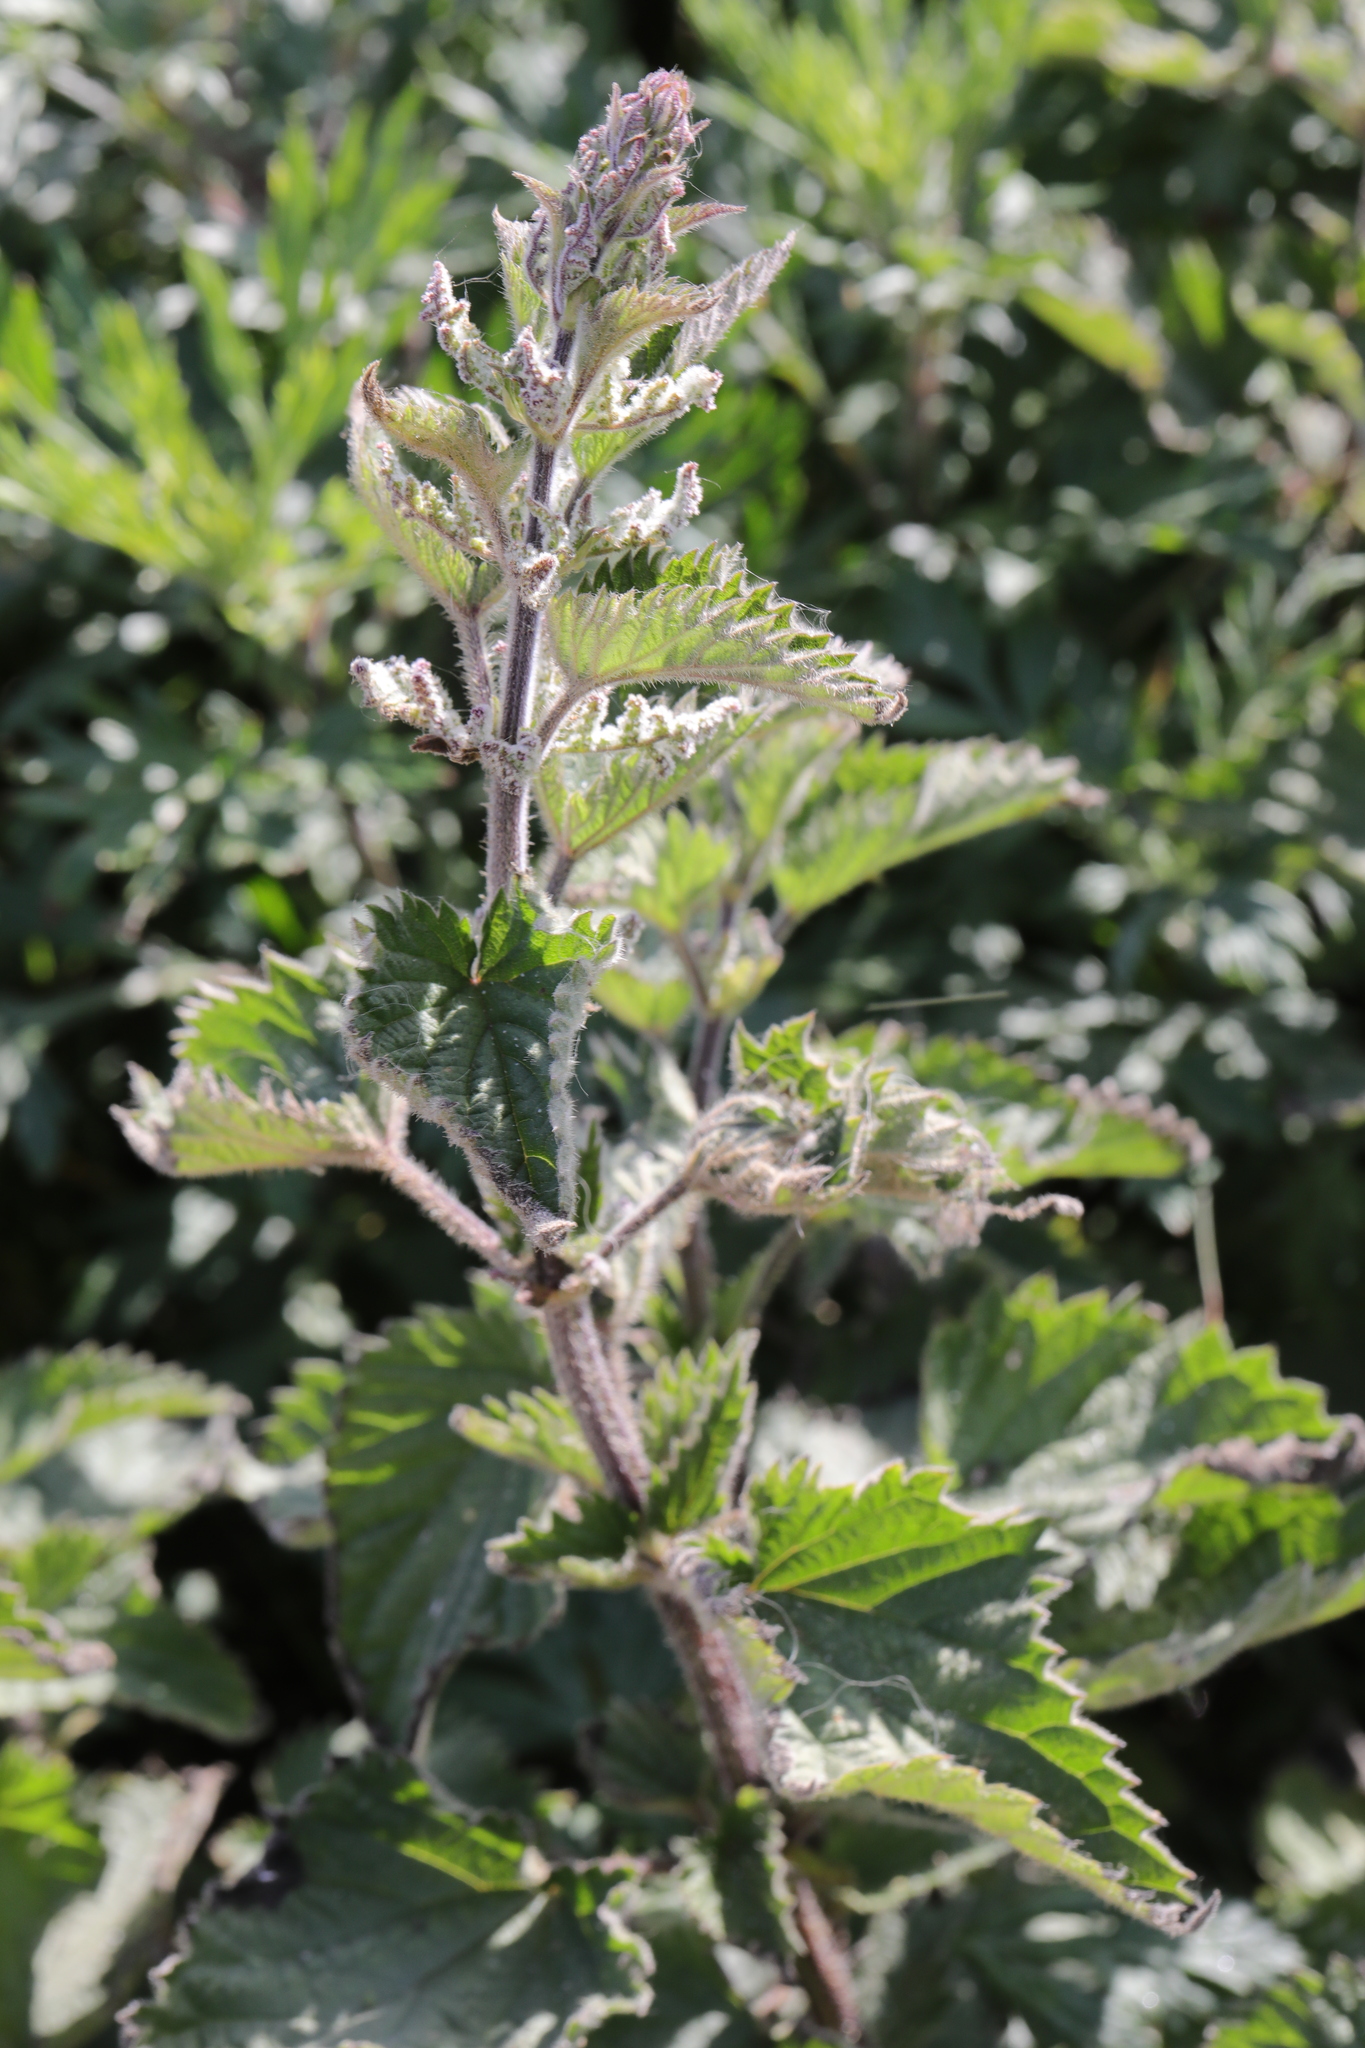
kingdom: Plantae
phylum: Tracheophyta
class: Magnoliopsida
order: Rosales
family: Urticaceae
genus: Urtica
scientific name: Urtica dioica
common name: Common nettle
